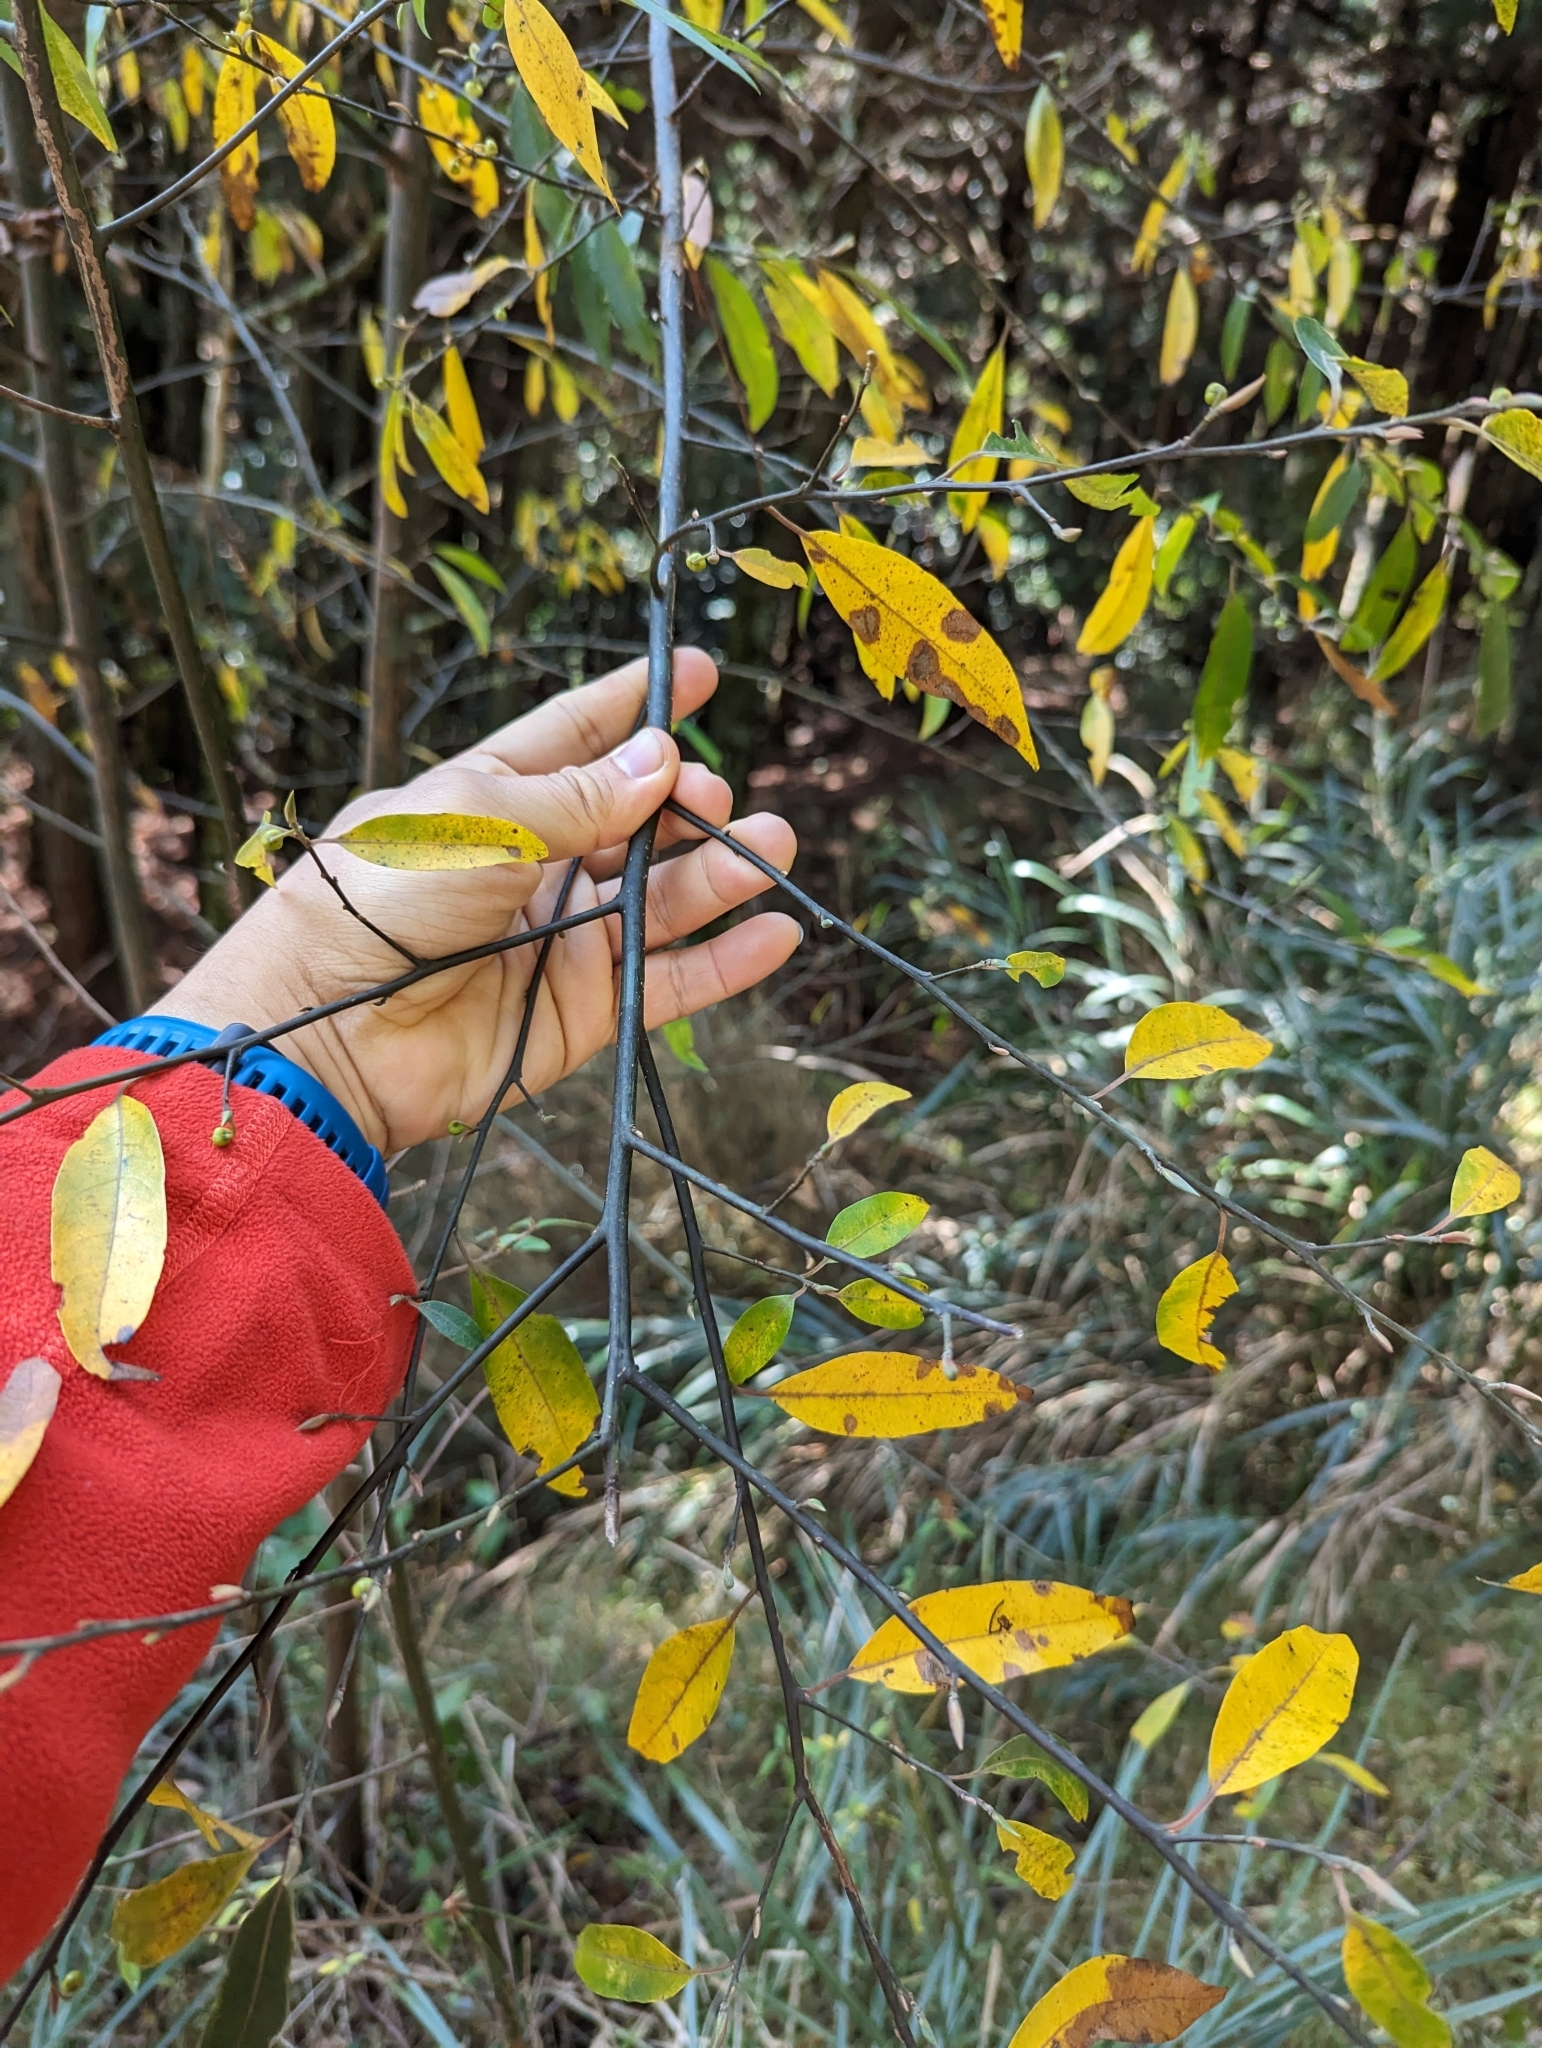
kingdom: Plantae
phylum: Tracheophyta
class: Magnoliopsida
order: Laurales
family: Lauraceae
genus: Litsea
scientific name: Litsea cubeba
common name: Mountain-pepper
